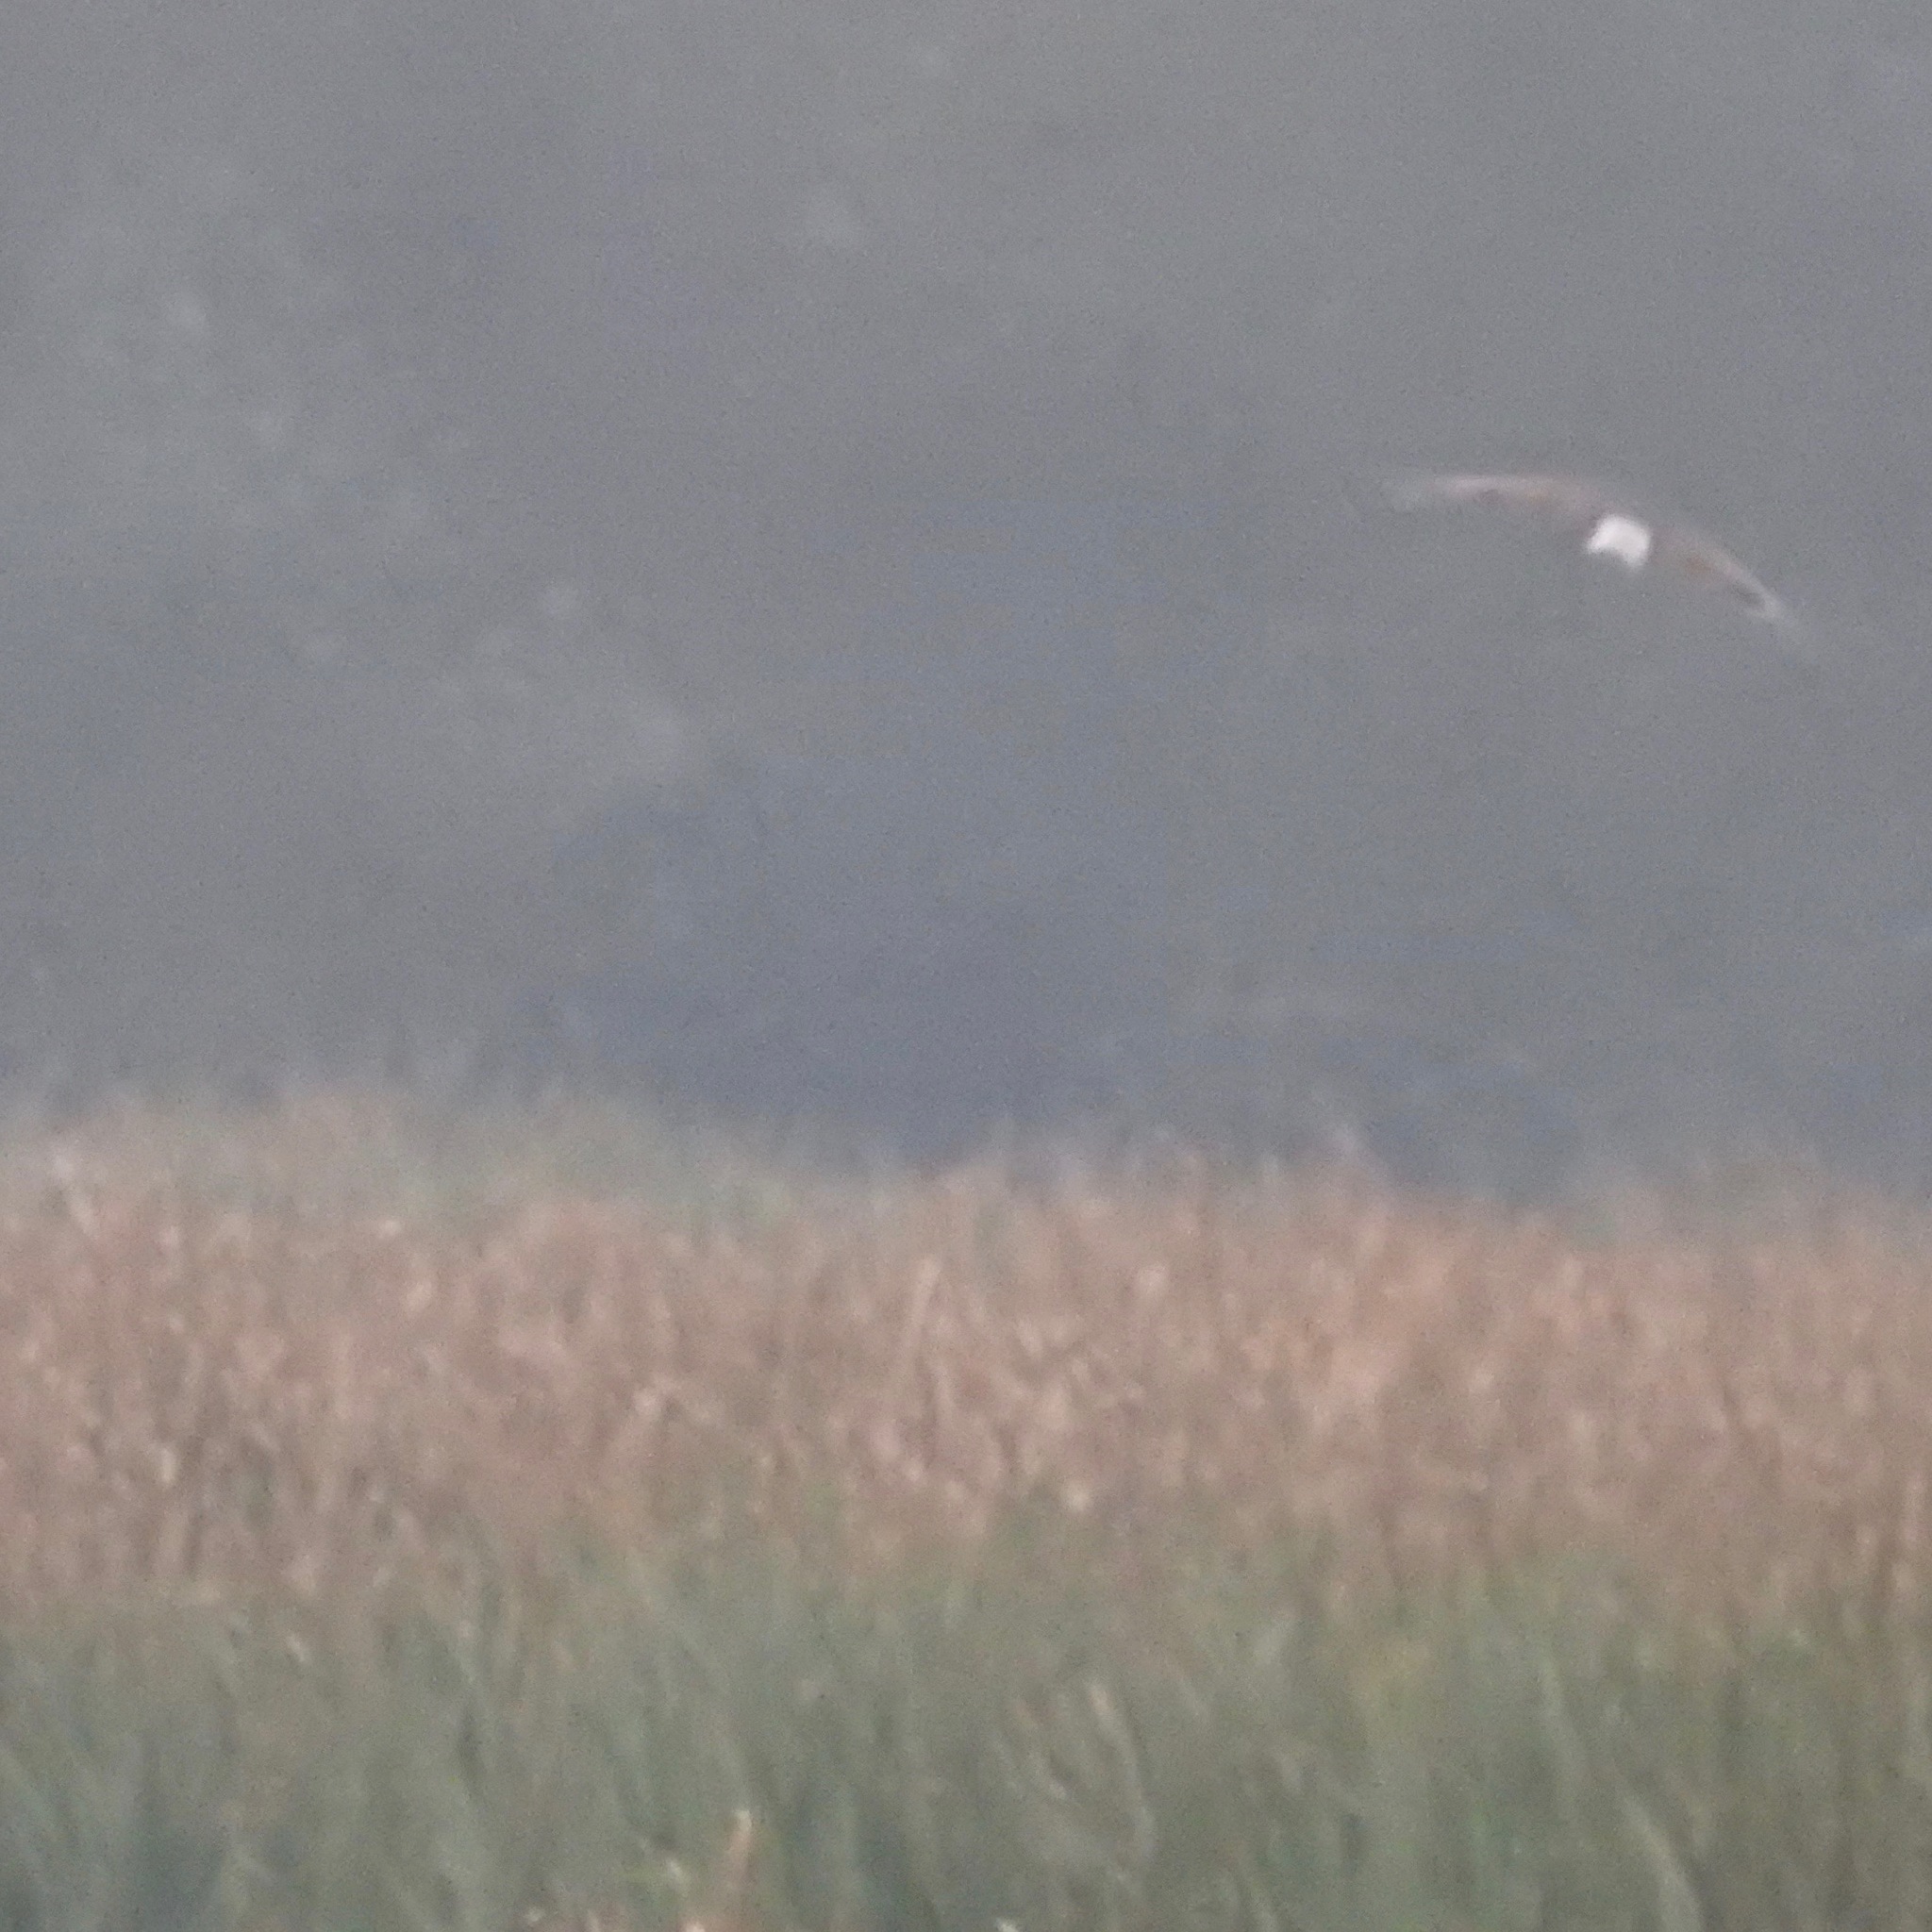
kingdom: Animalia
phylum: Chordata
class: Aves
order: Accipitriformes
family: Accipitridae
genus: Circus
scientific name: Circus cyaneus
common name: Hen harrier
